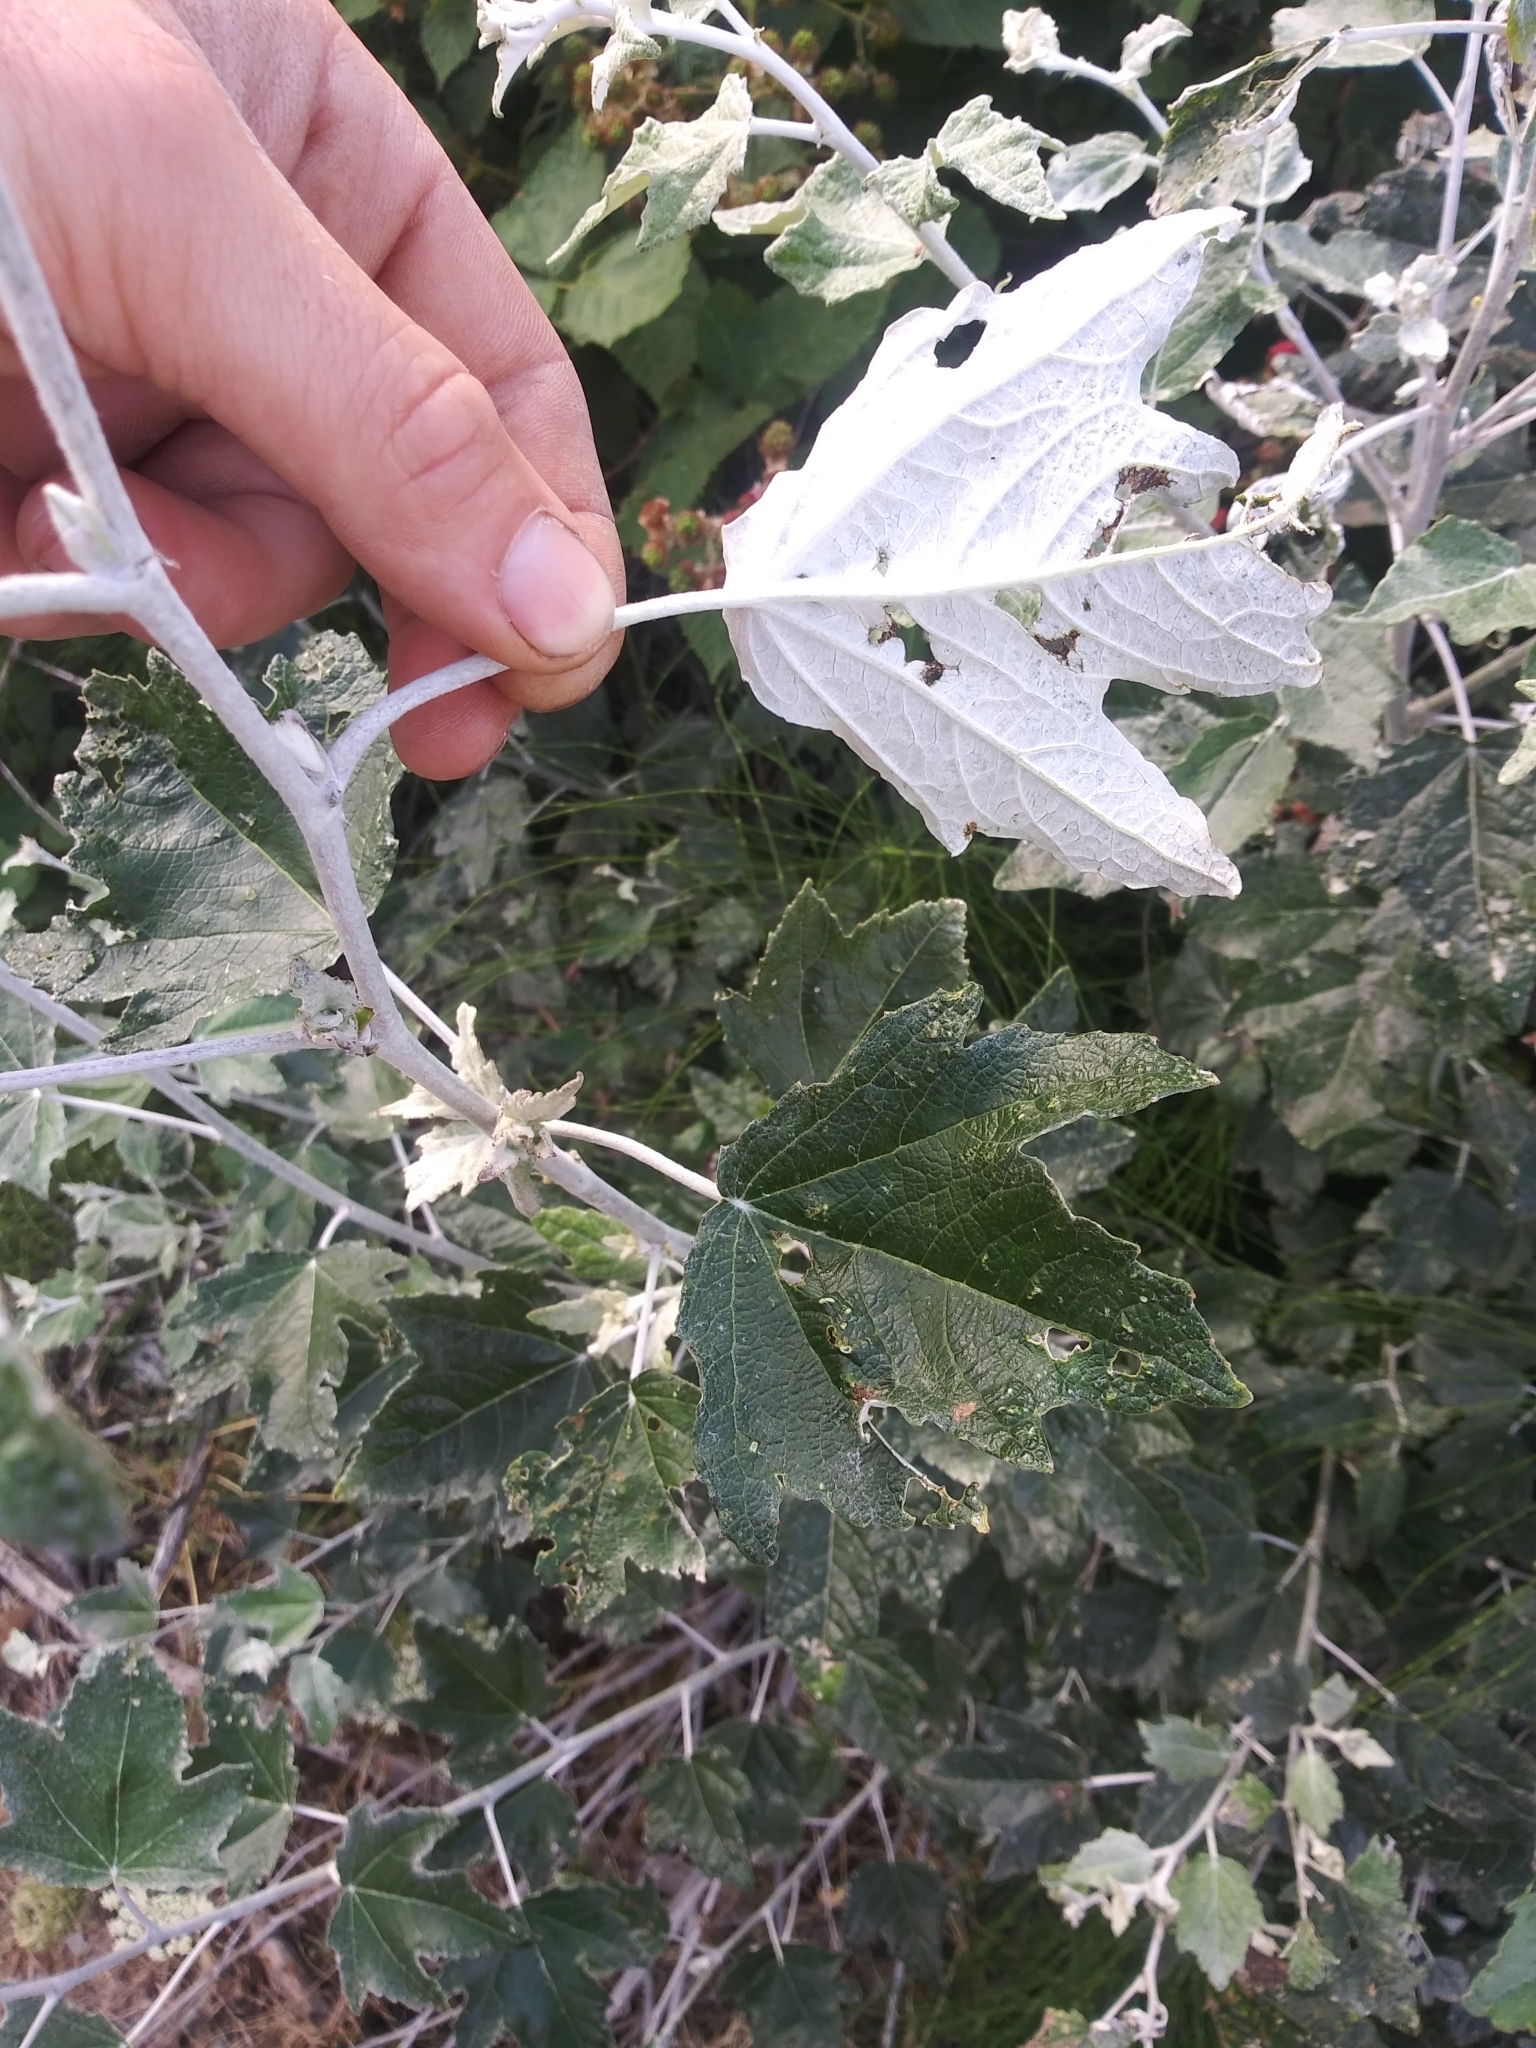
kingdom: Plantae
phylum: Tracheophyta
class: Magnoliopsida
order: Malpighiales
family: Salicaceae
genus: Populus
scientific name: Populus alba
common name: White poplar
